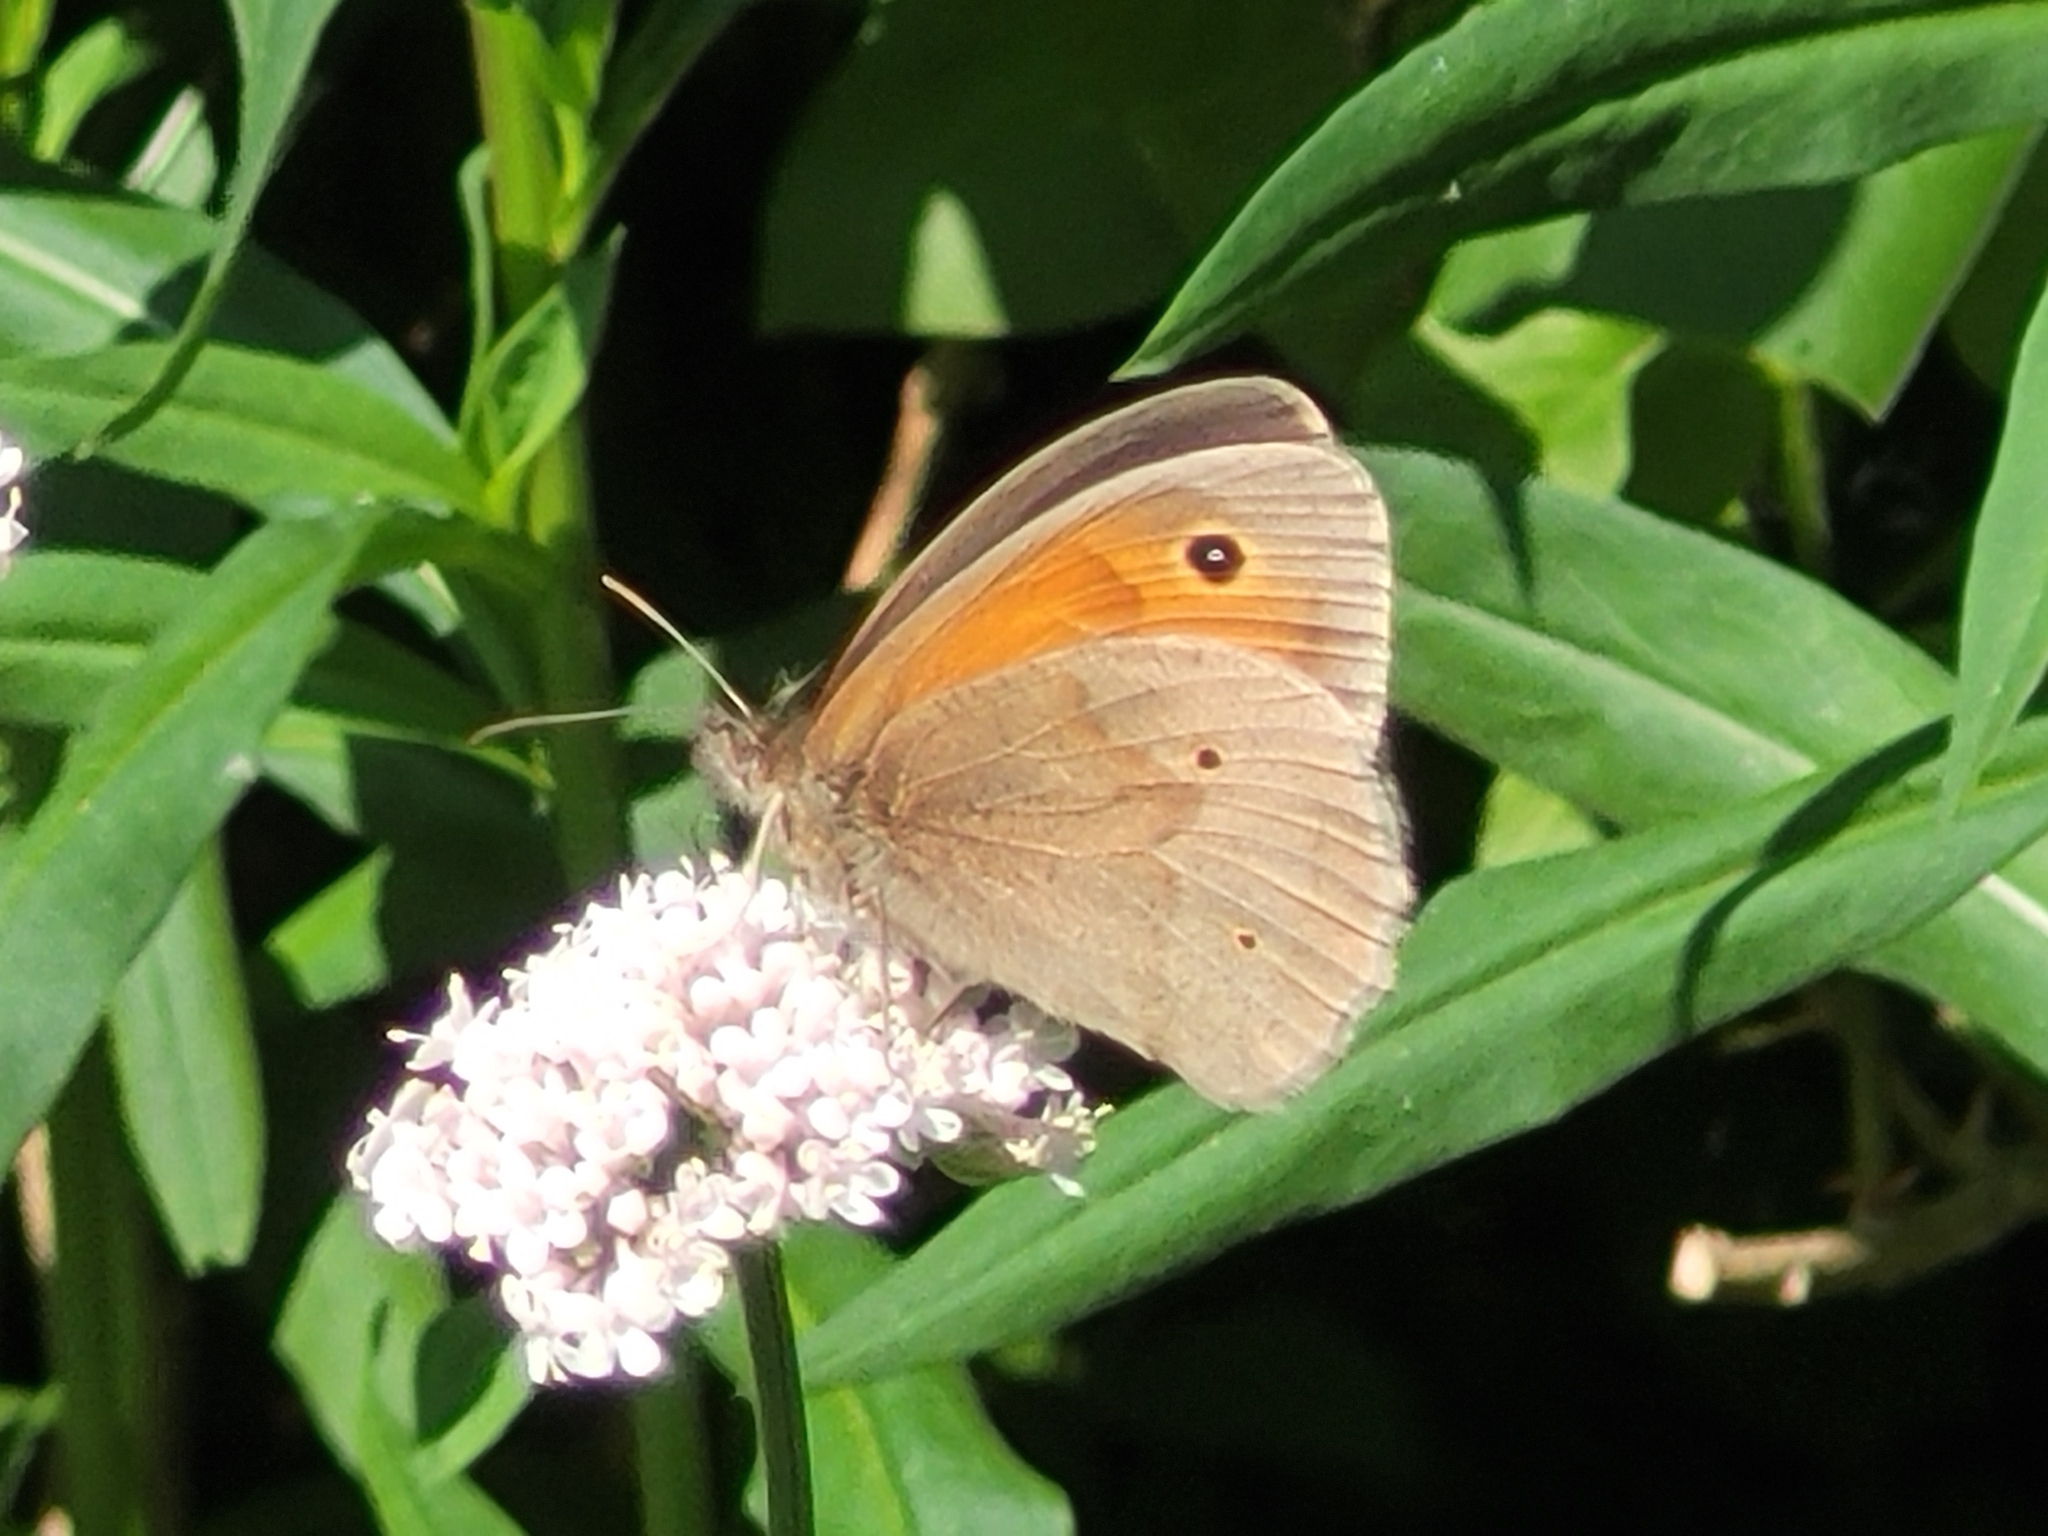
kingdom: Animalia
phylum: Arthropoda
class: Insecta
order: Lepidoptera
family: Nymphalidae
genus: Maniola
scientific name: Maniola jurtina
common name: Meadow brown
